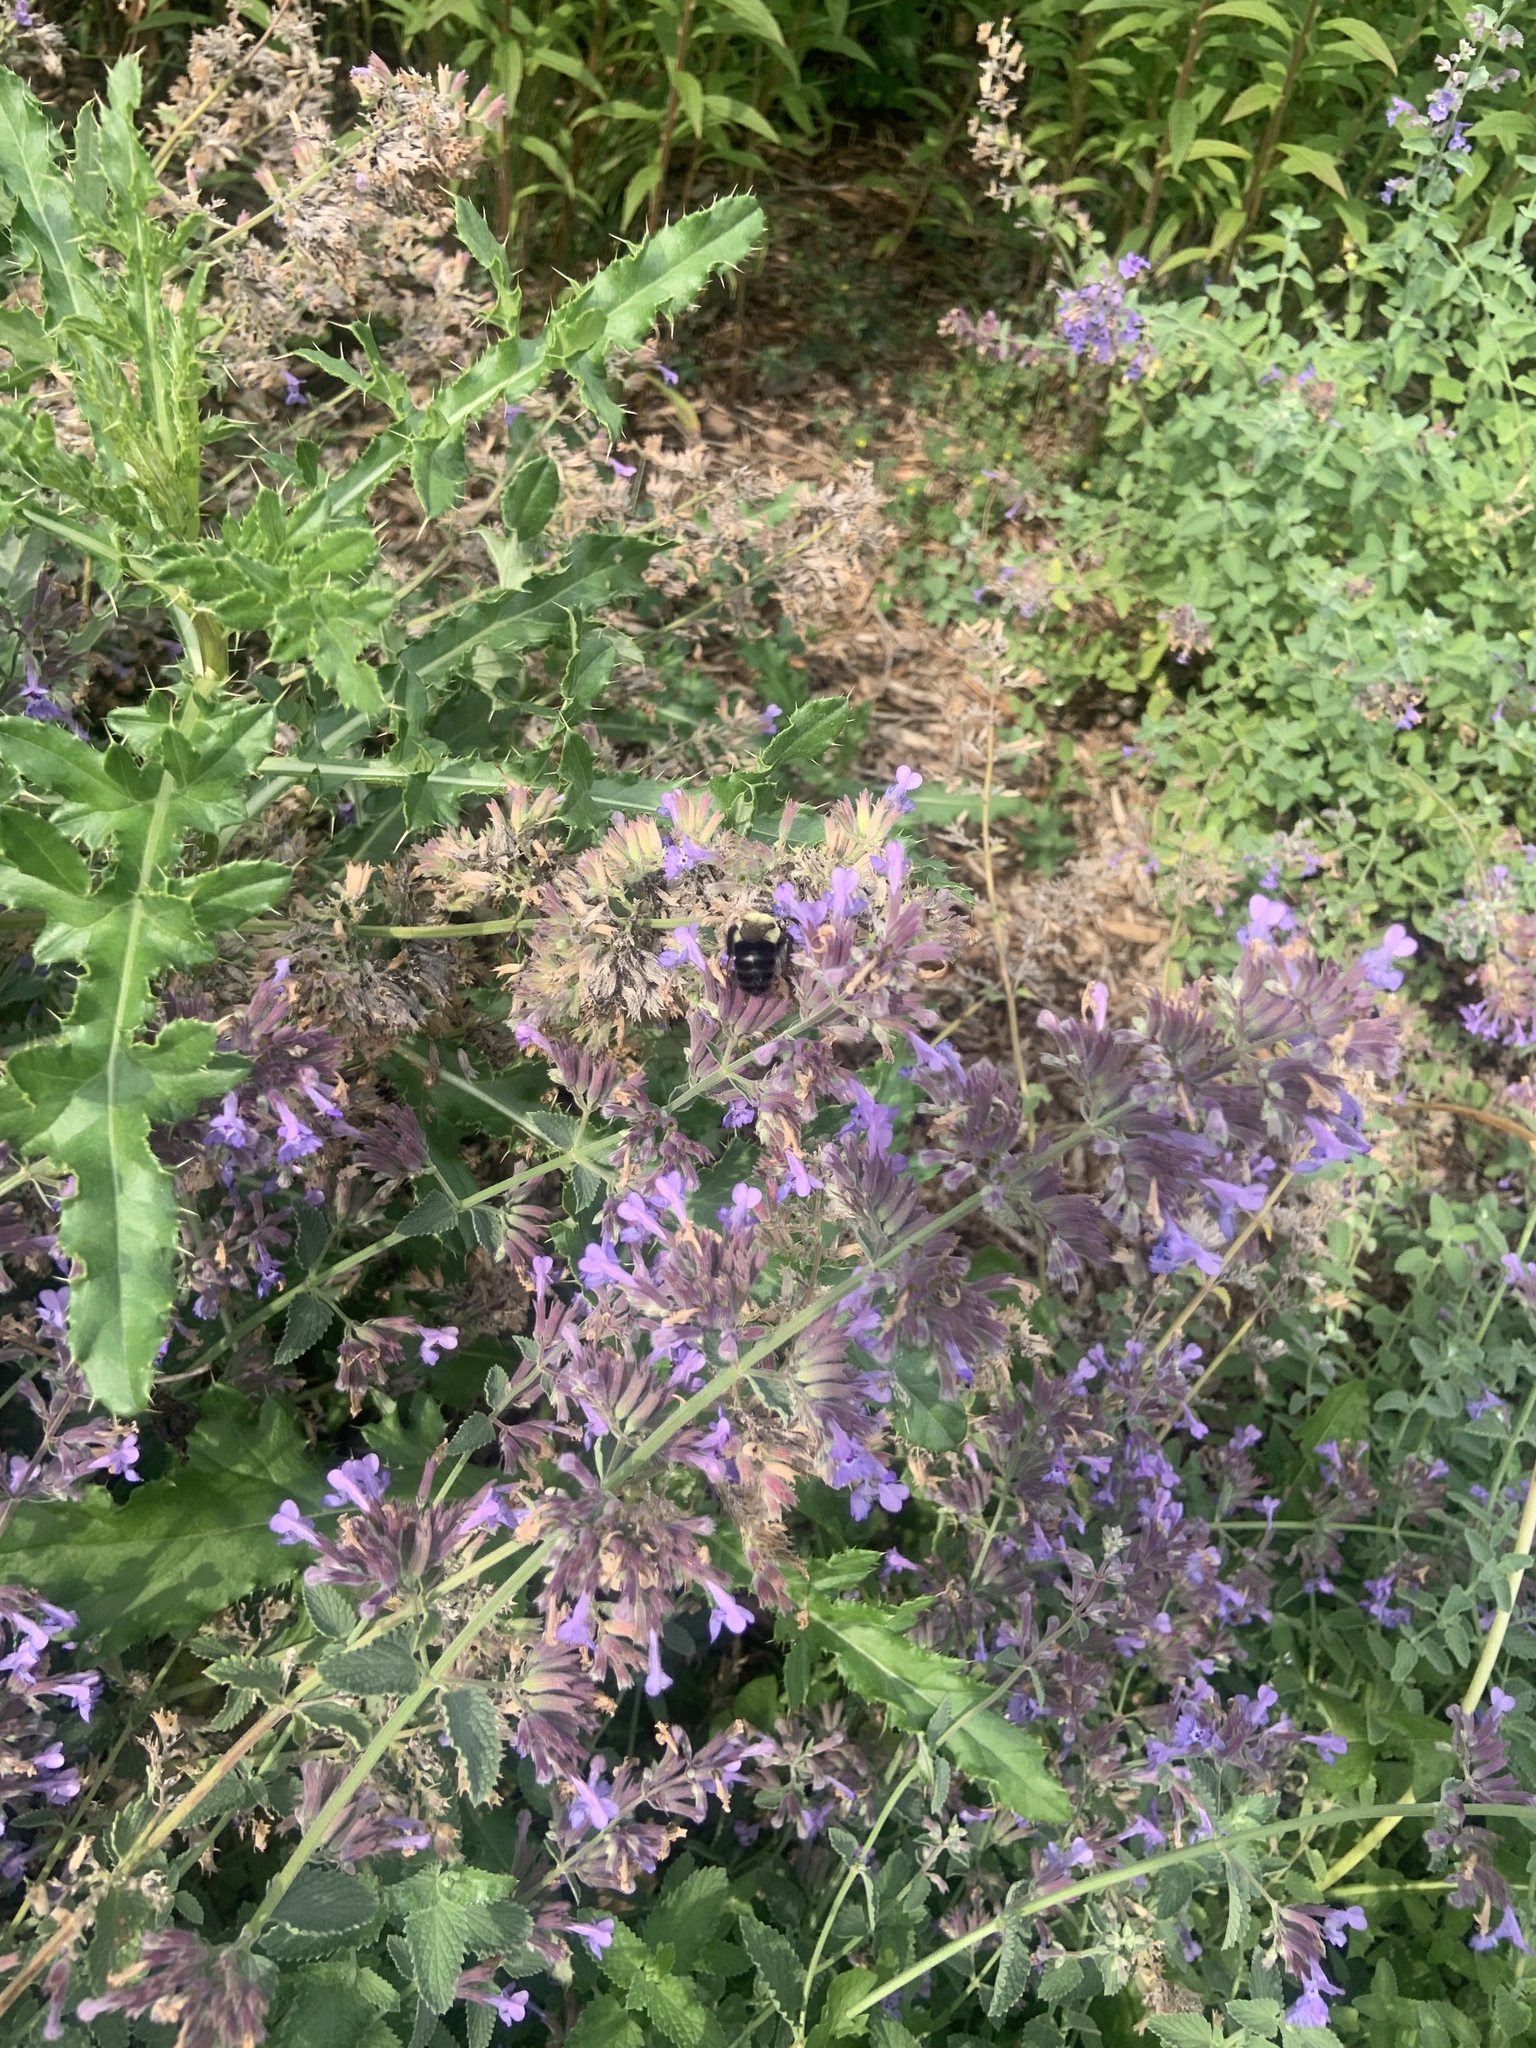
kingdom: Animalia
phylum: Arthropoda
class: Insecta
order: Hymenoptera
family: Apidae
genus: Bombus
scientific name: Bombus impatiens
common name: Common eastern bumble bee
